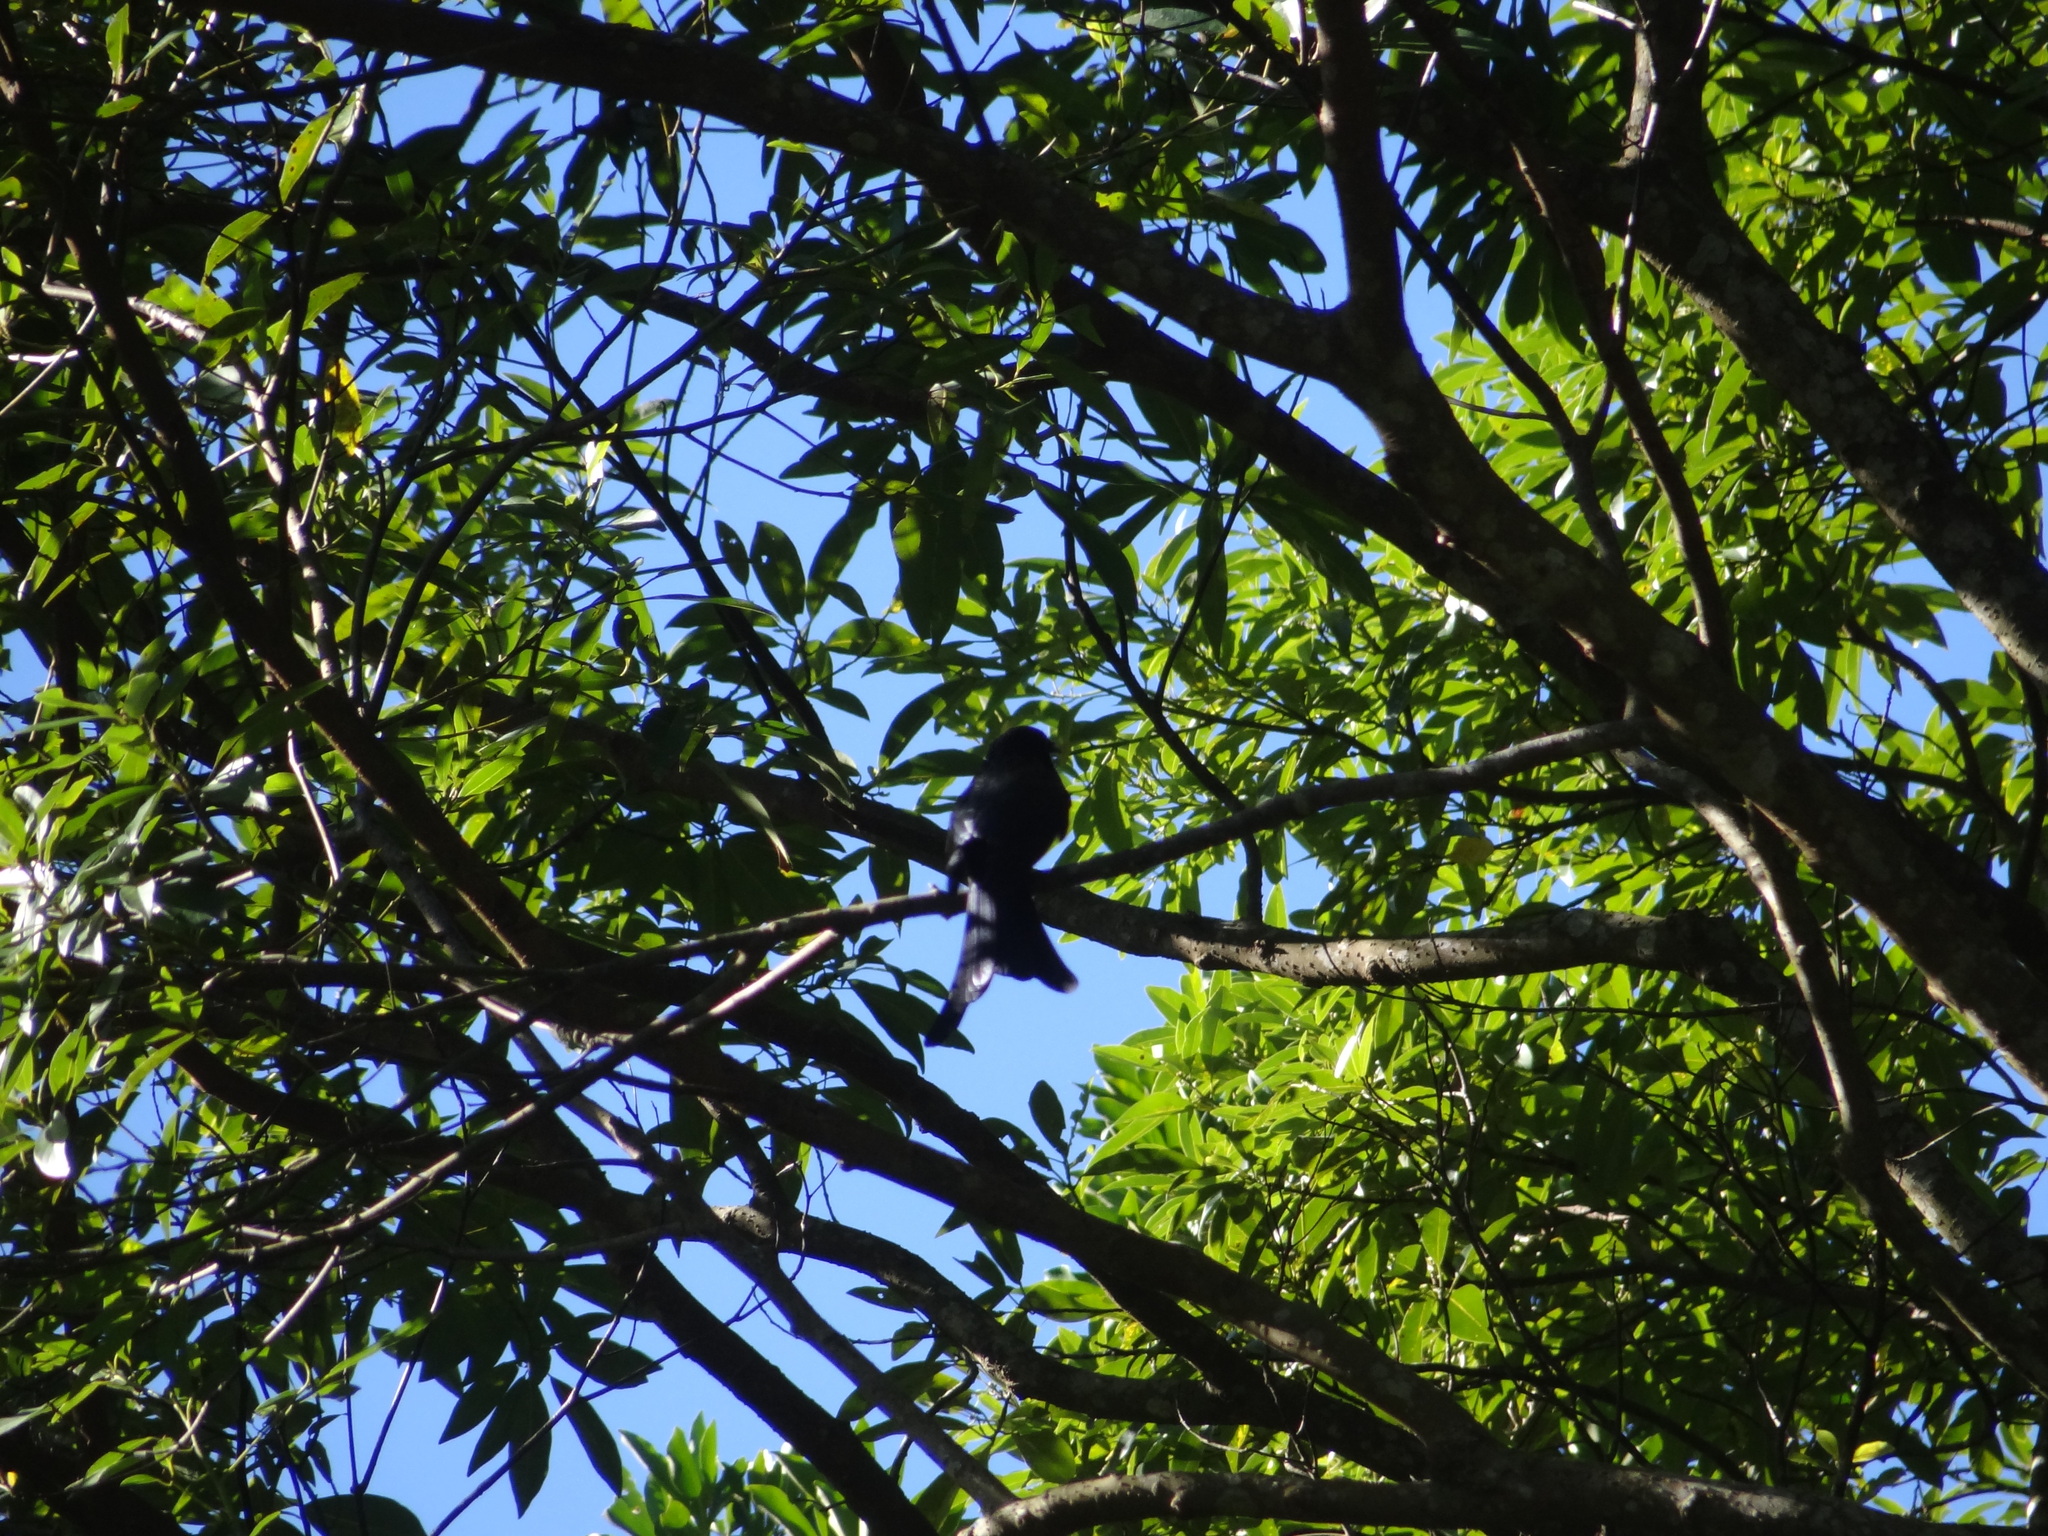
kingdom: Animalia
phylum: Chordata
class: Aves
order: Passeriformes
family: Dicruridae
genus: Dicrurus
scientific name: Dicrurus aeneus
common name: Bronzed drongo
